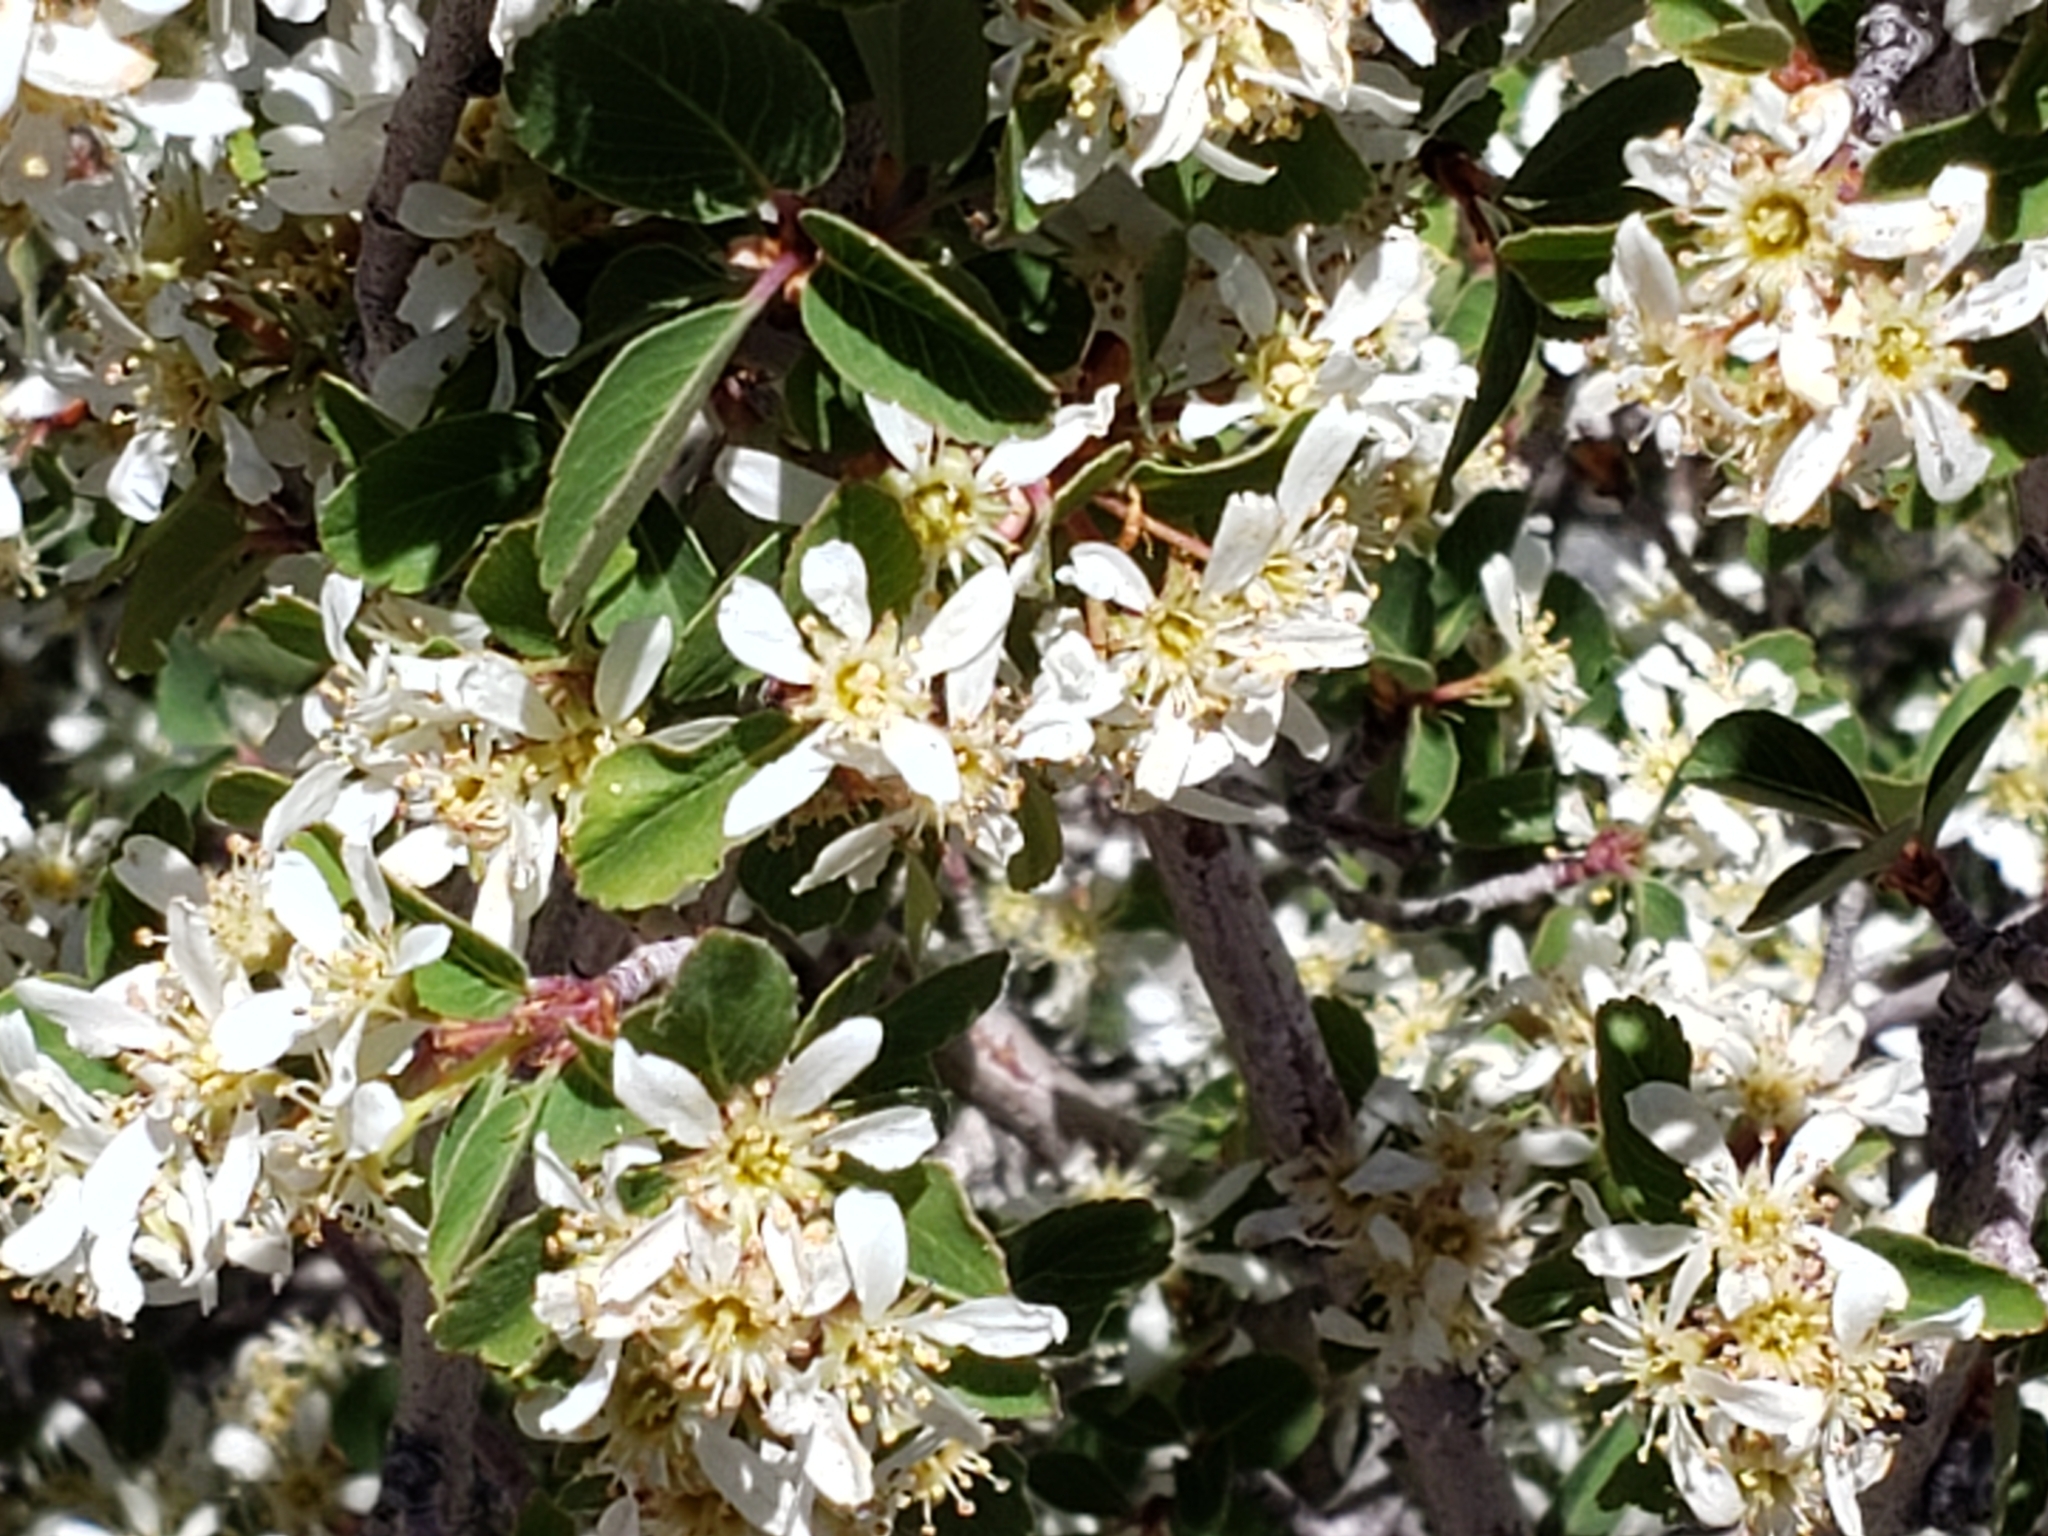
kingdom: Plantae
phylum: Tracheophyta
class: Magnoliopsida
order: Rosales
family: Rosaceae
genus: Amelanchier
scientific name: Amelanchier utahensis
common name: Utah serviceberry
